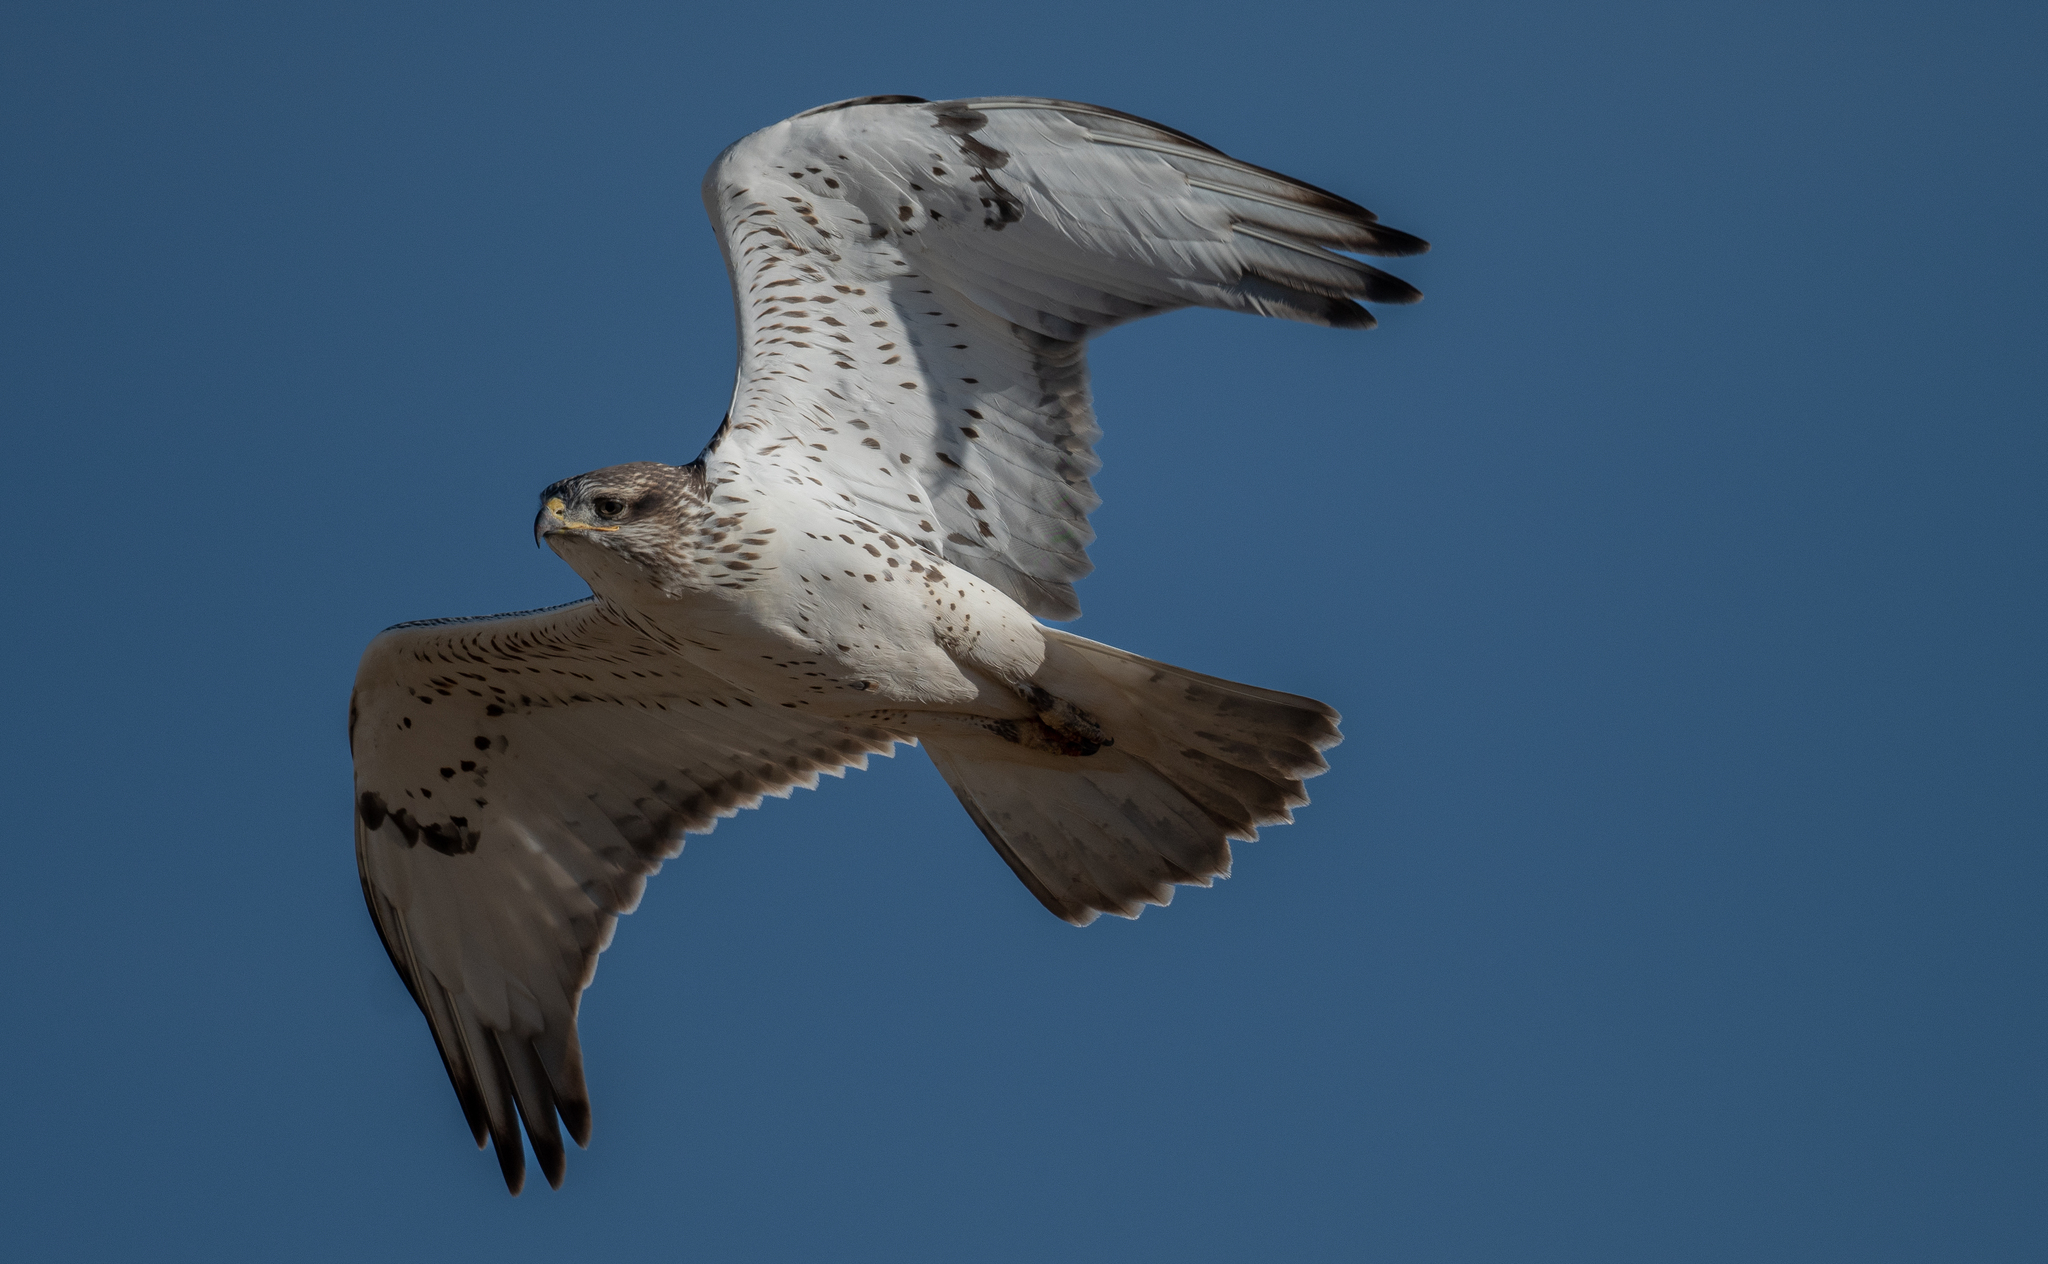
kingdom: Animalia
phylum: Chordata
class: Aves
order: Accipitriformes
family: Accipitridae
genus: Buteo
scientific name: Buteo regalis
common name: Ferruginous hawk
